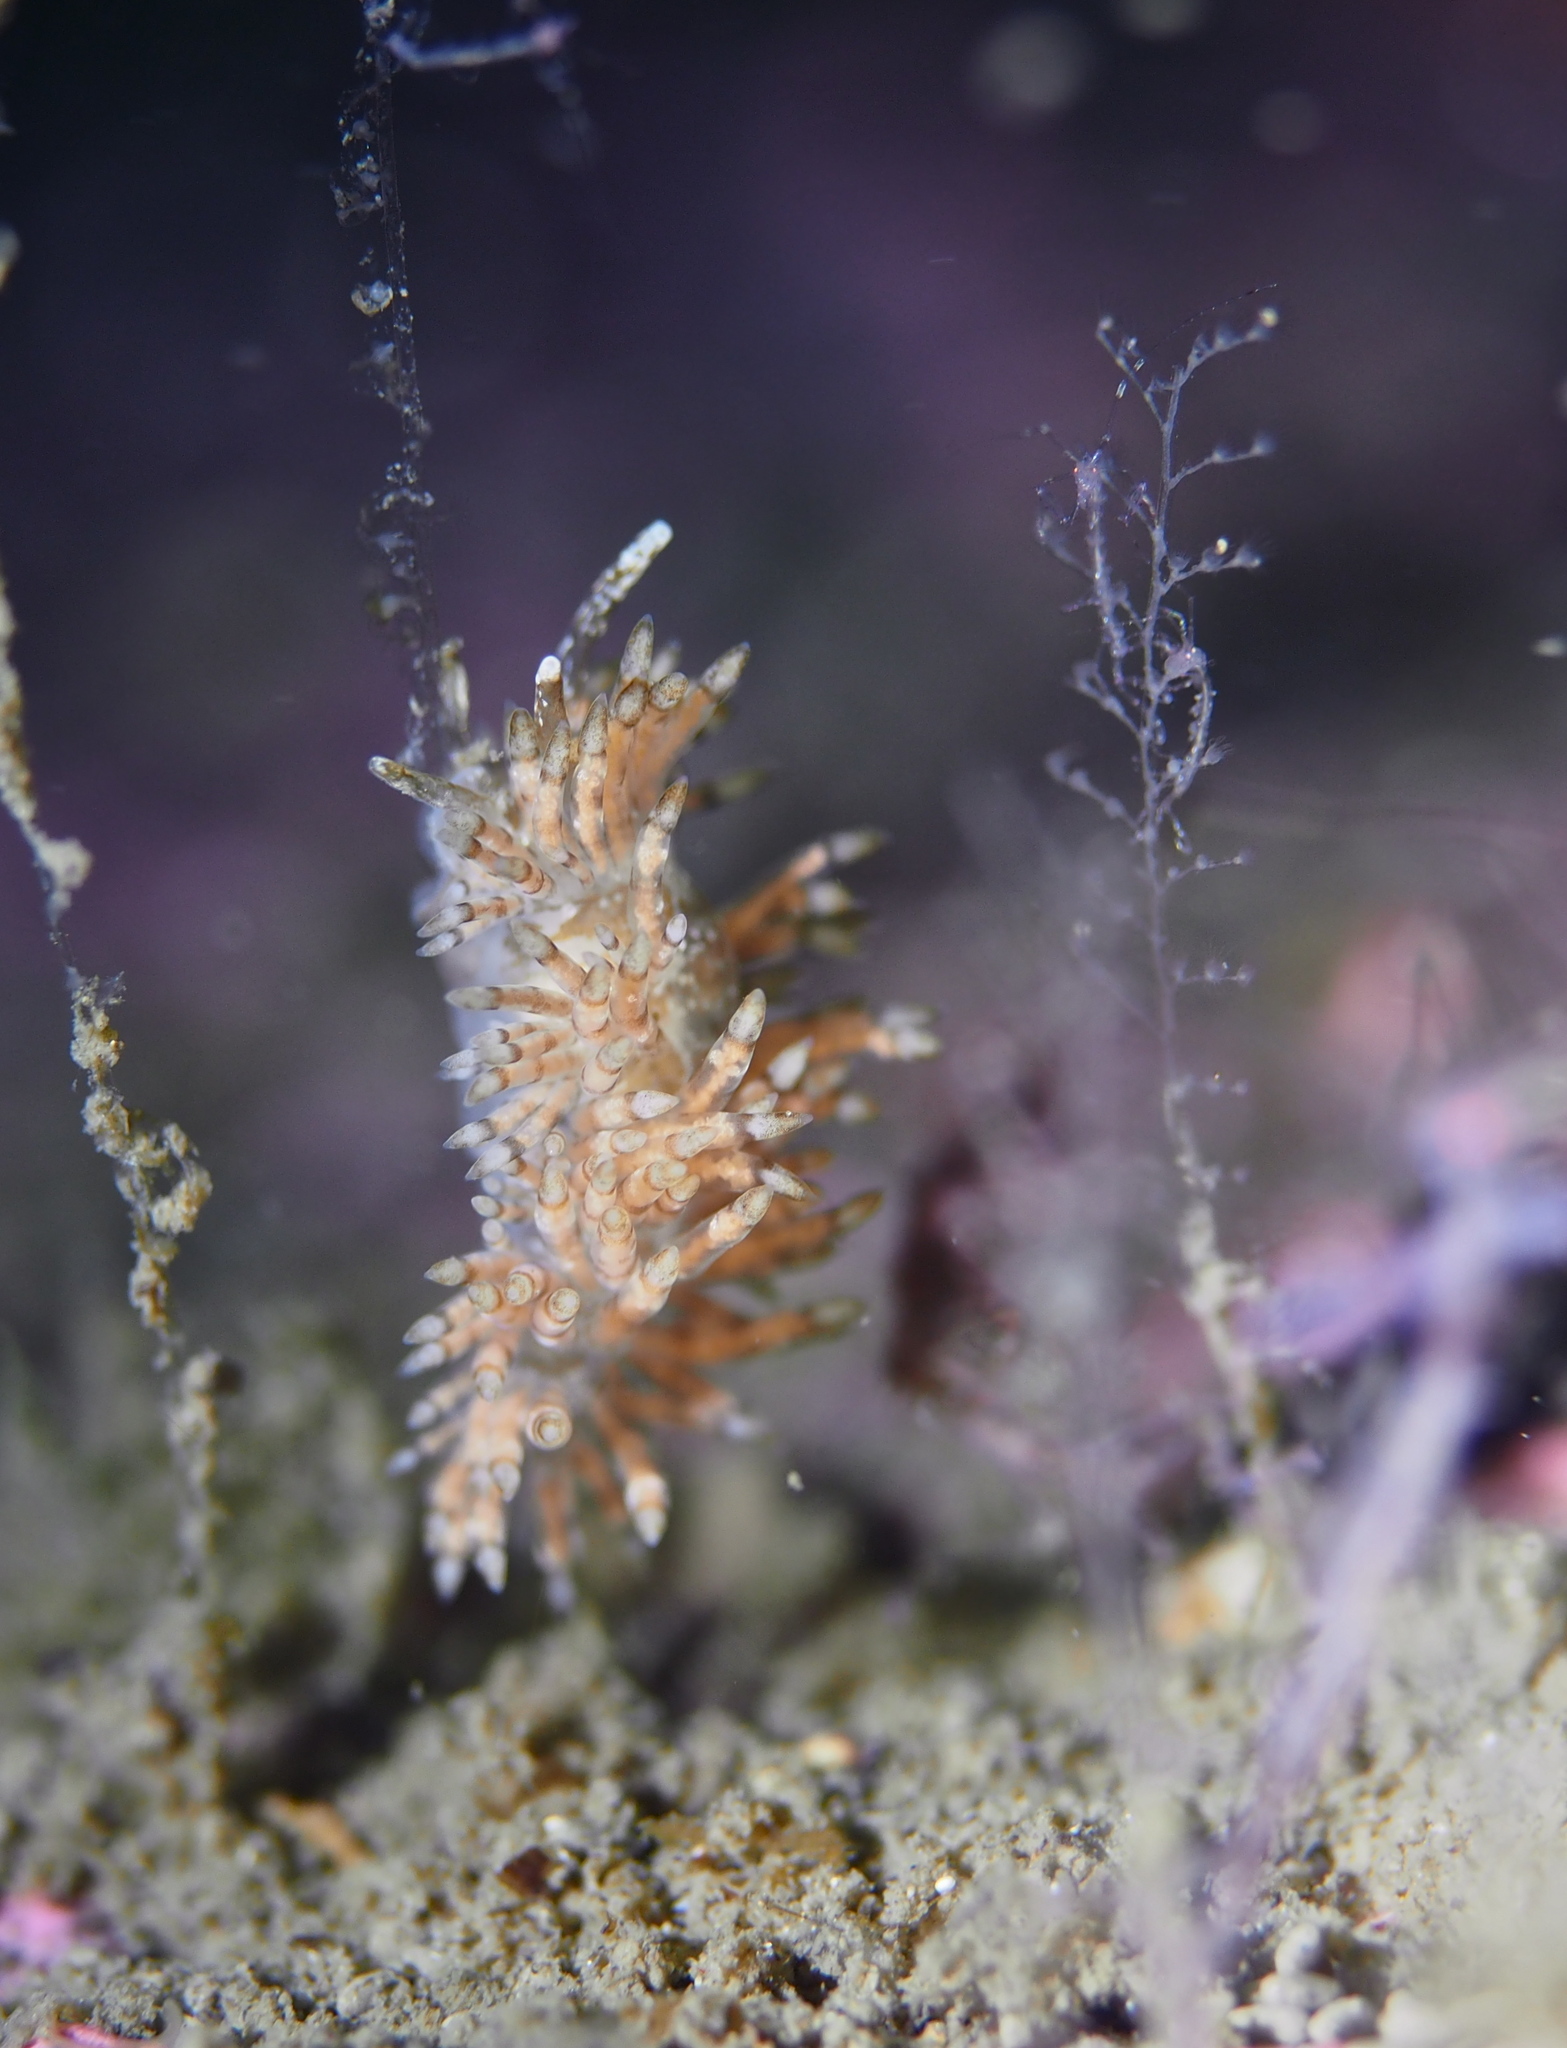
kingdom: Animalia
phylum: Mollusca
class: Gastropoda
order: Nudibranchia
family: Eubranchidae
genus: Eubranchus
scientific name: Eubranchus vittatus
